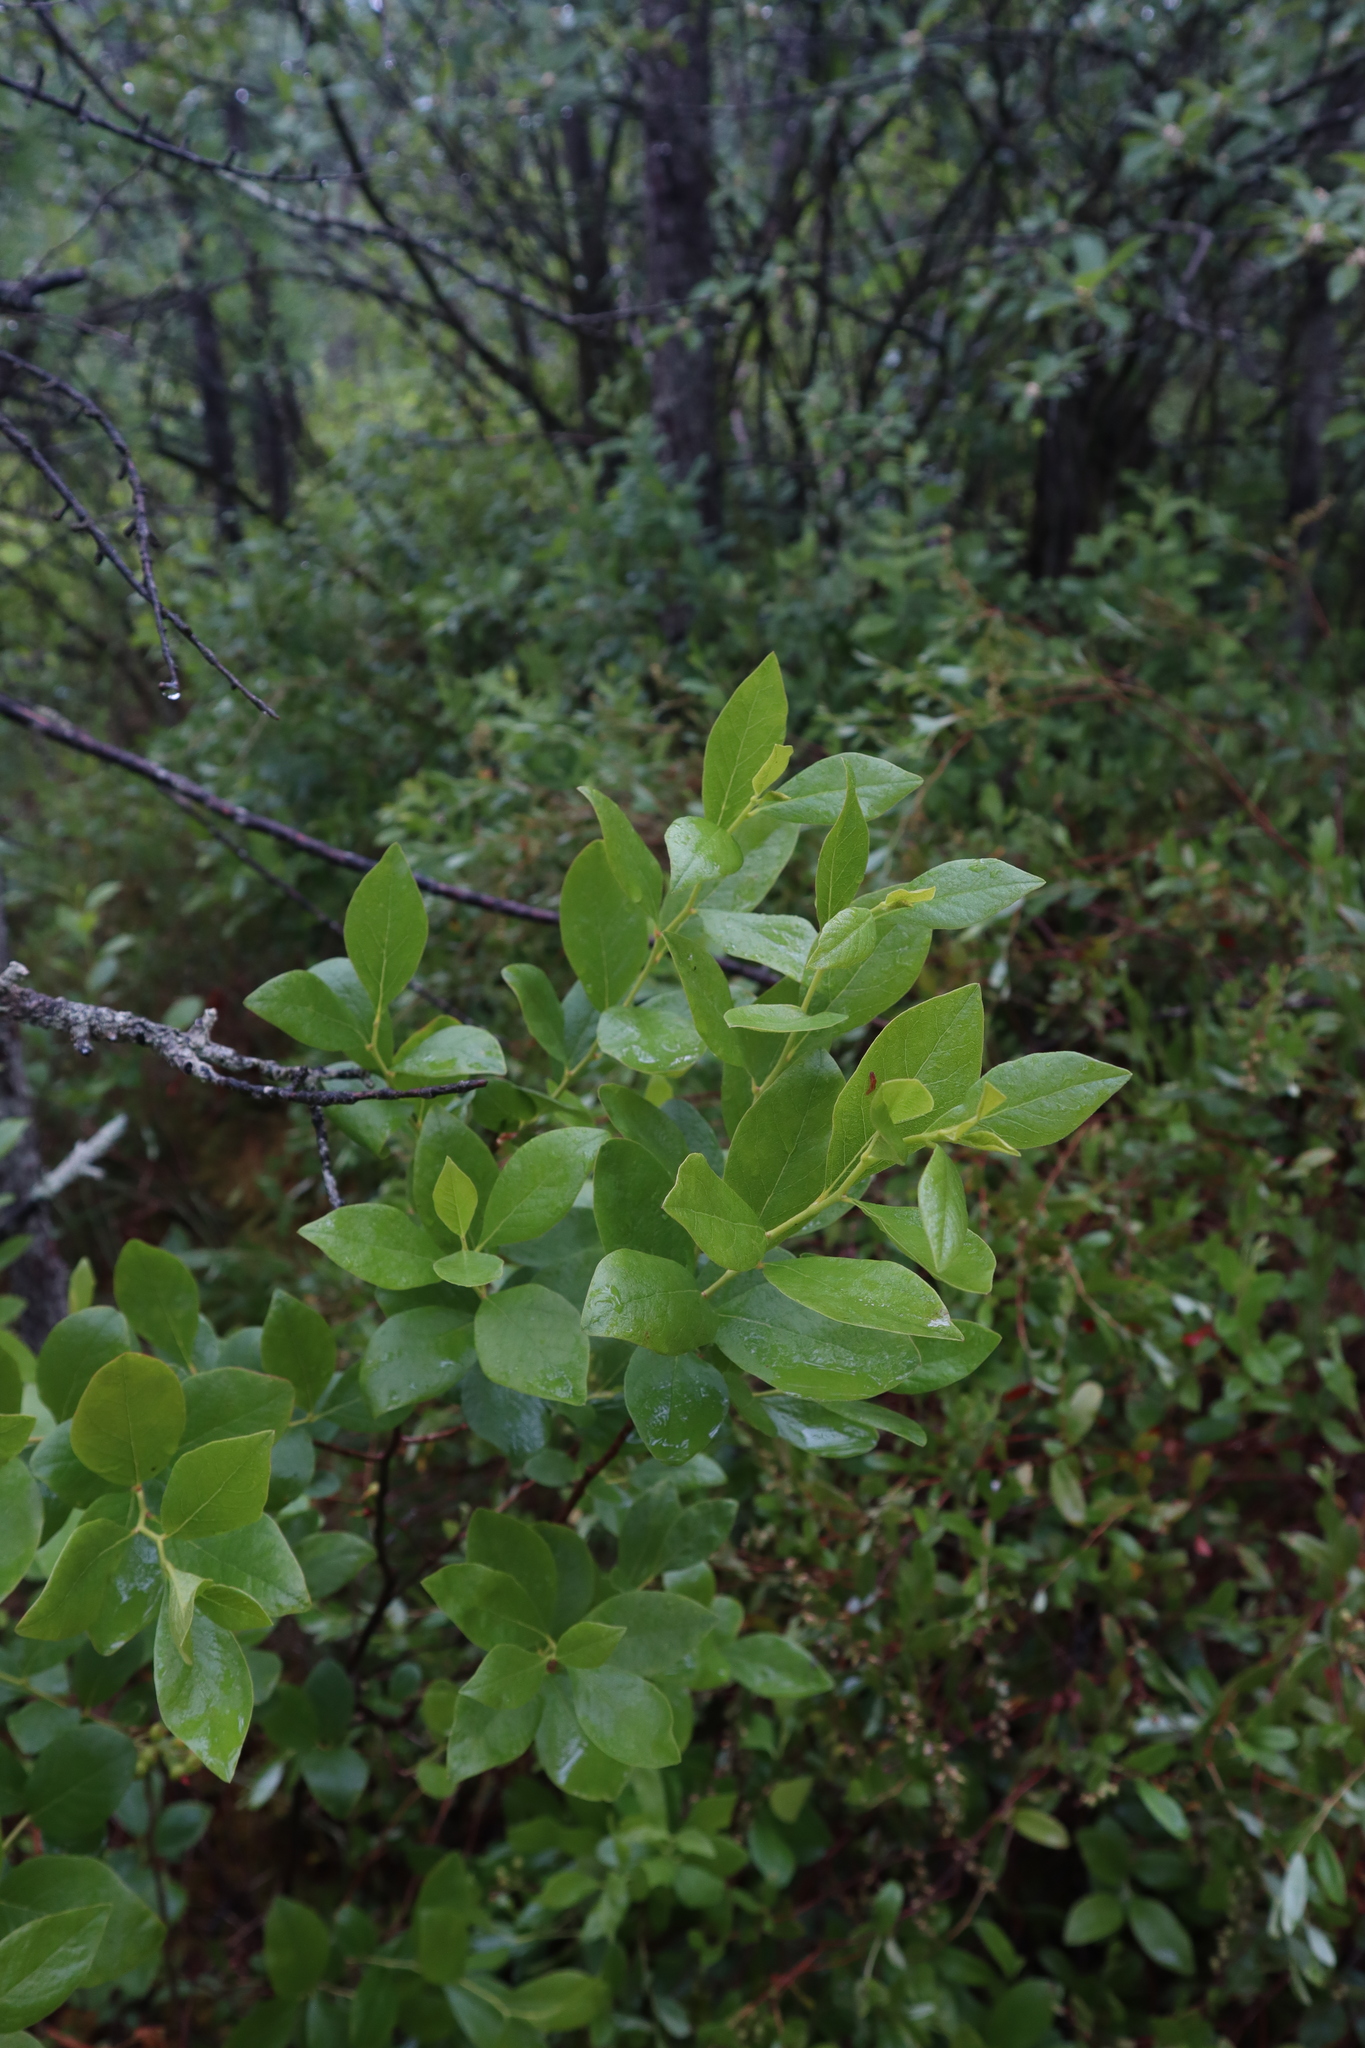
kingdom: Plantae
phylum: Tracheophyta
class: Magnoliopsida
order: Ericales
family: Ericaceae
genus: Gaylussacia
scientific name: Gaylussacia baccata
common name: Black huckleberry
